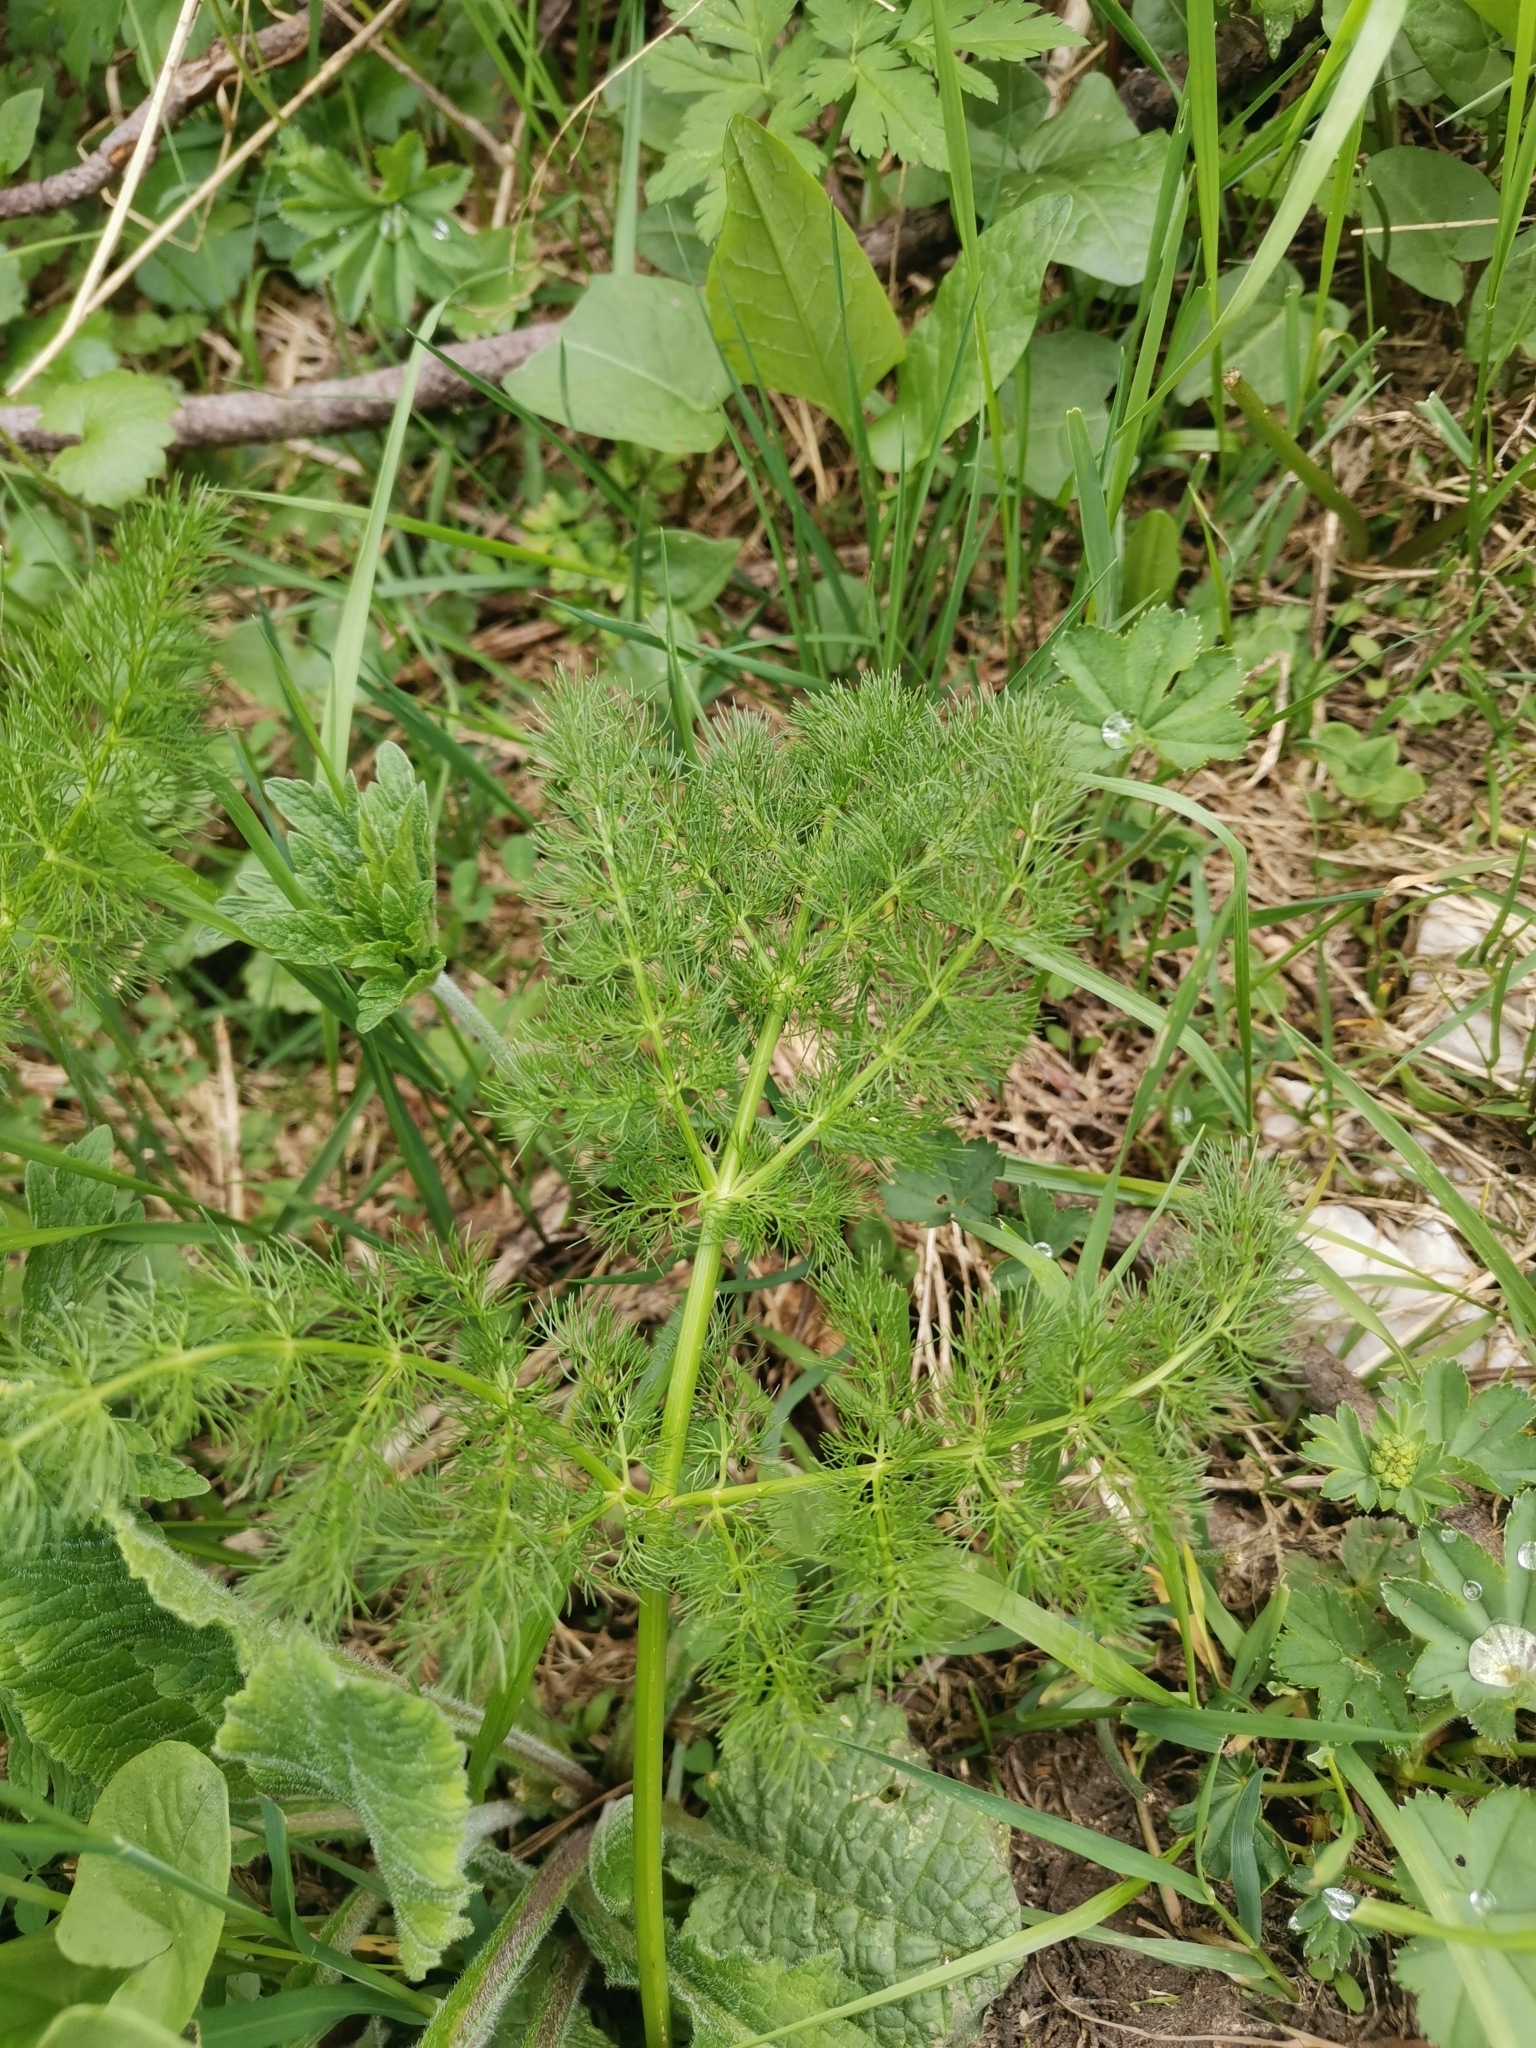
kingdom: Plantae
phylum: Tracheophyta
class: Magnoliopsida
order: Apiales
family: Apiaceae
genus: Meum
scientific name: Meum athamanticum
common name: Spignel
